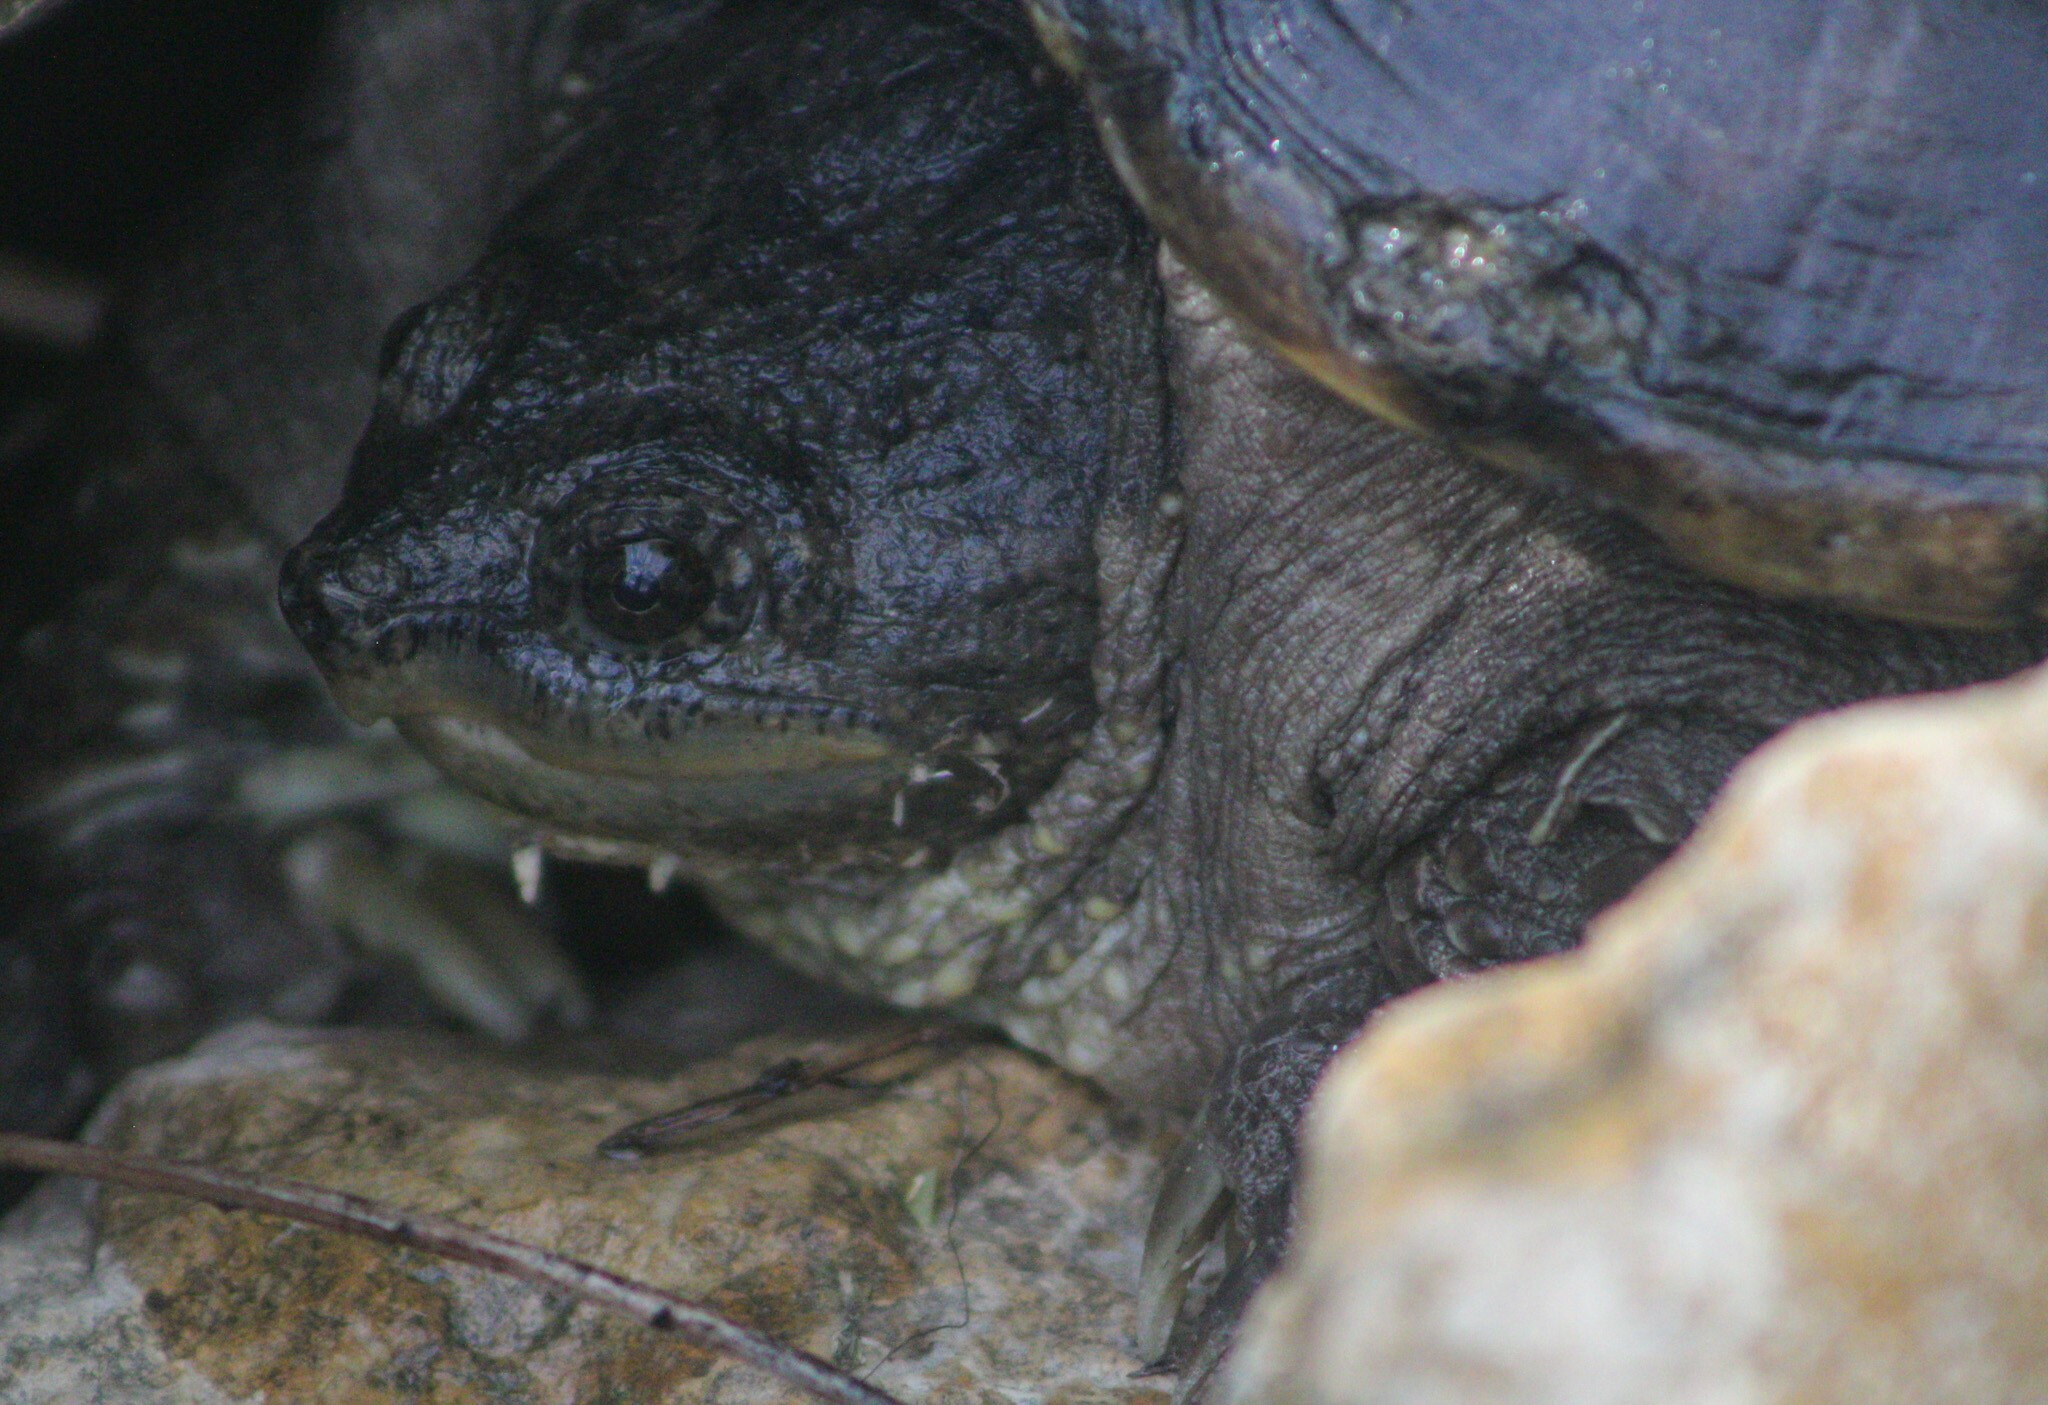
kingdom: Animalia
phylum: Chordata
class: Testudines
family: Chelydridae
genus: Chelydra
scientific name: Chelydra serpentina
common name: Common snapping turtle
